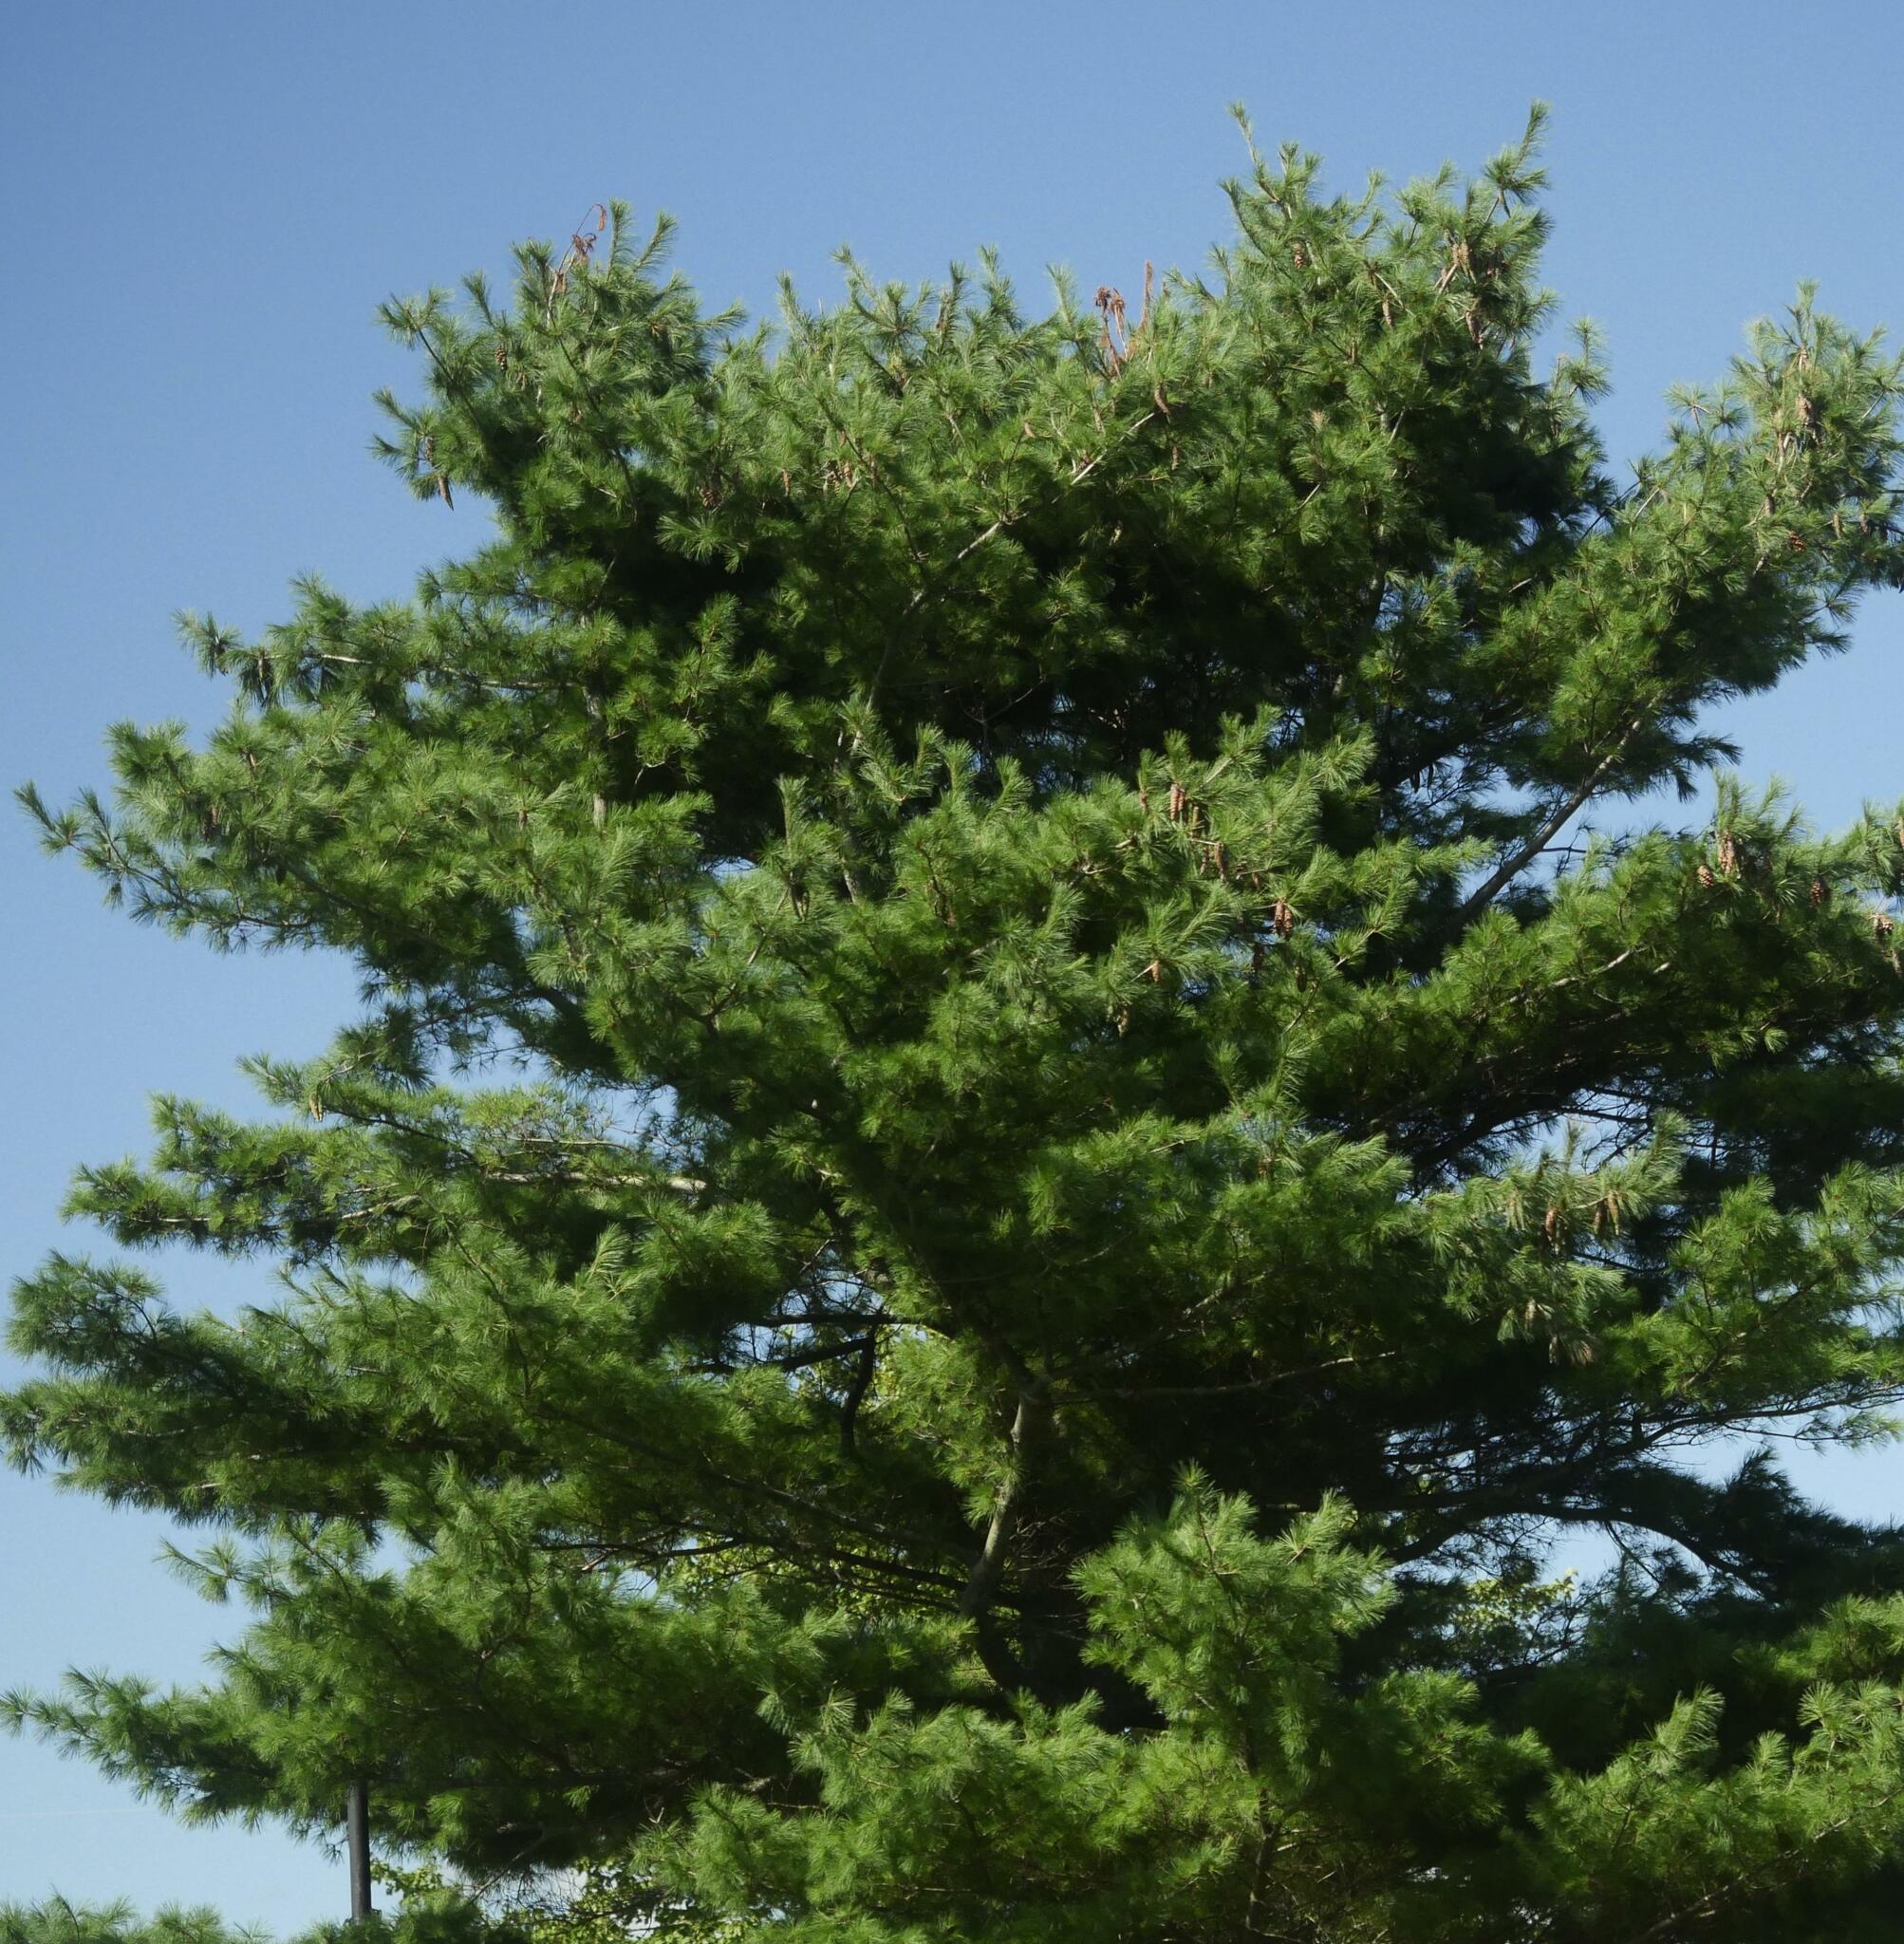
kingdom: Plantae
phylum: Tracheophyta
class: Pinopsida
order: Pinales
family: Pinaceae
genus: Pinus
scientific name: Pinus strobus
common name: Weymouth pine
